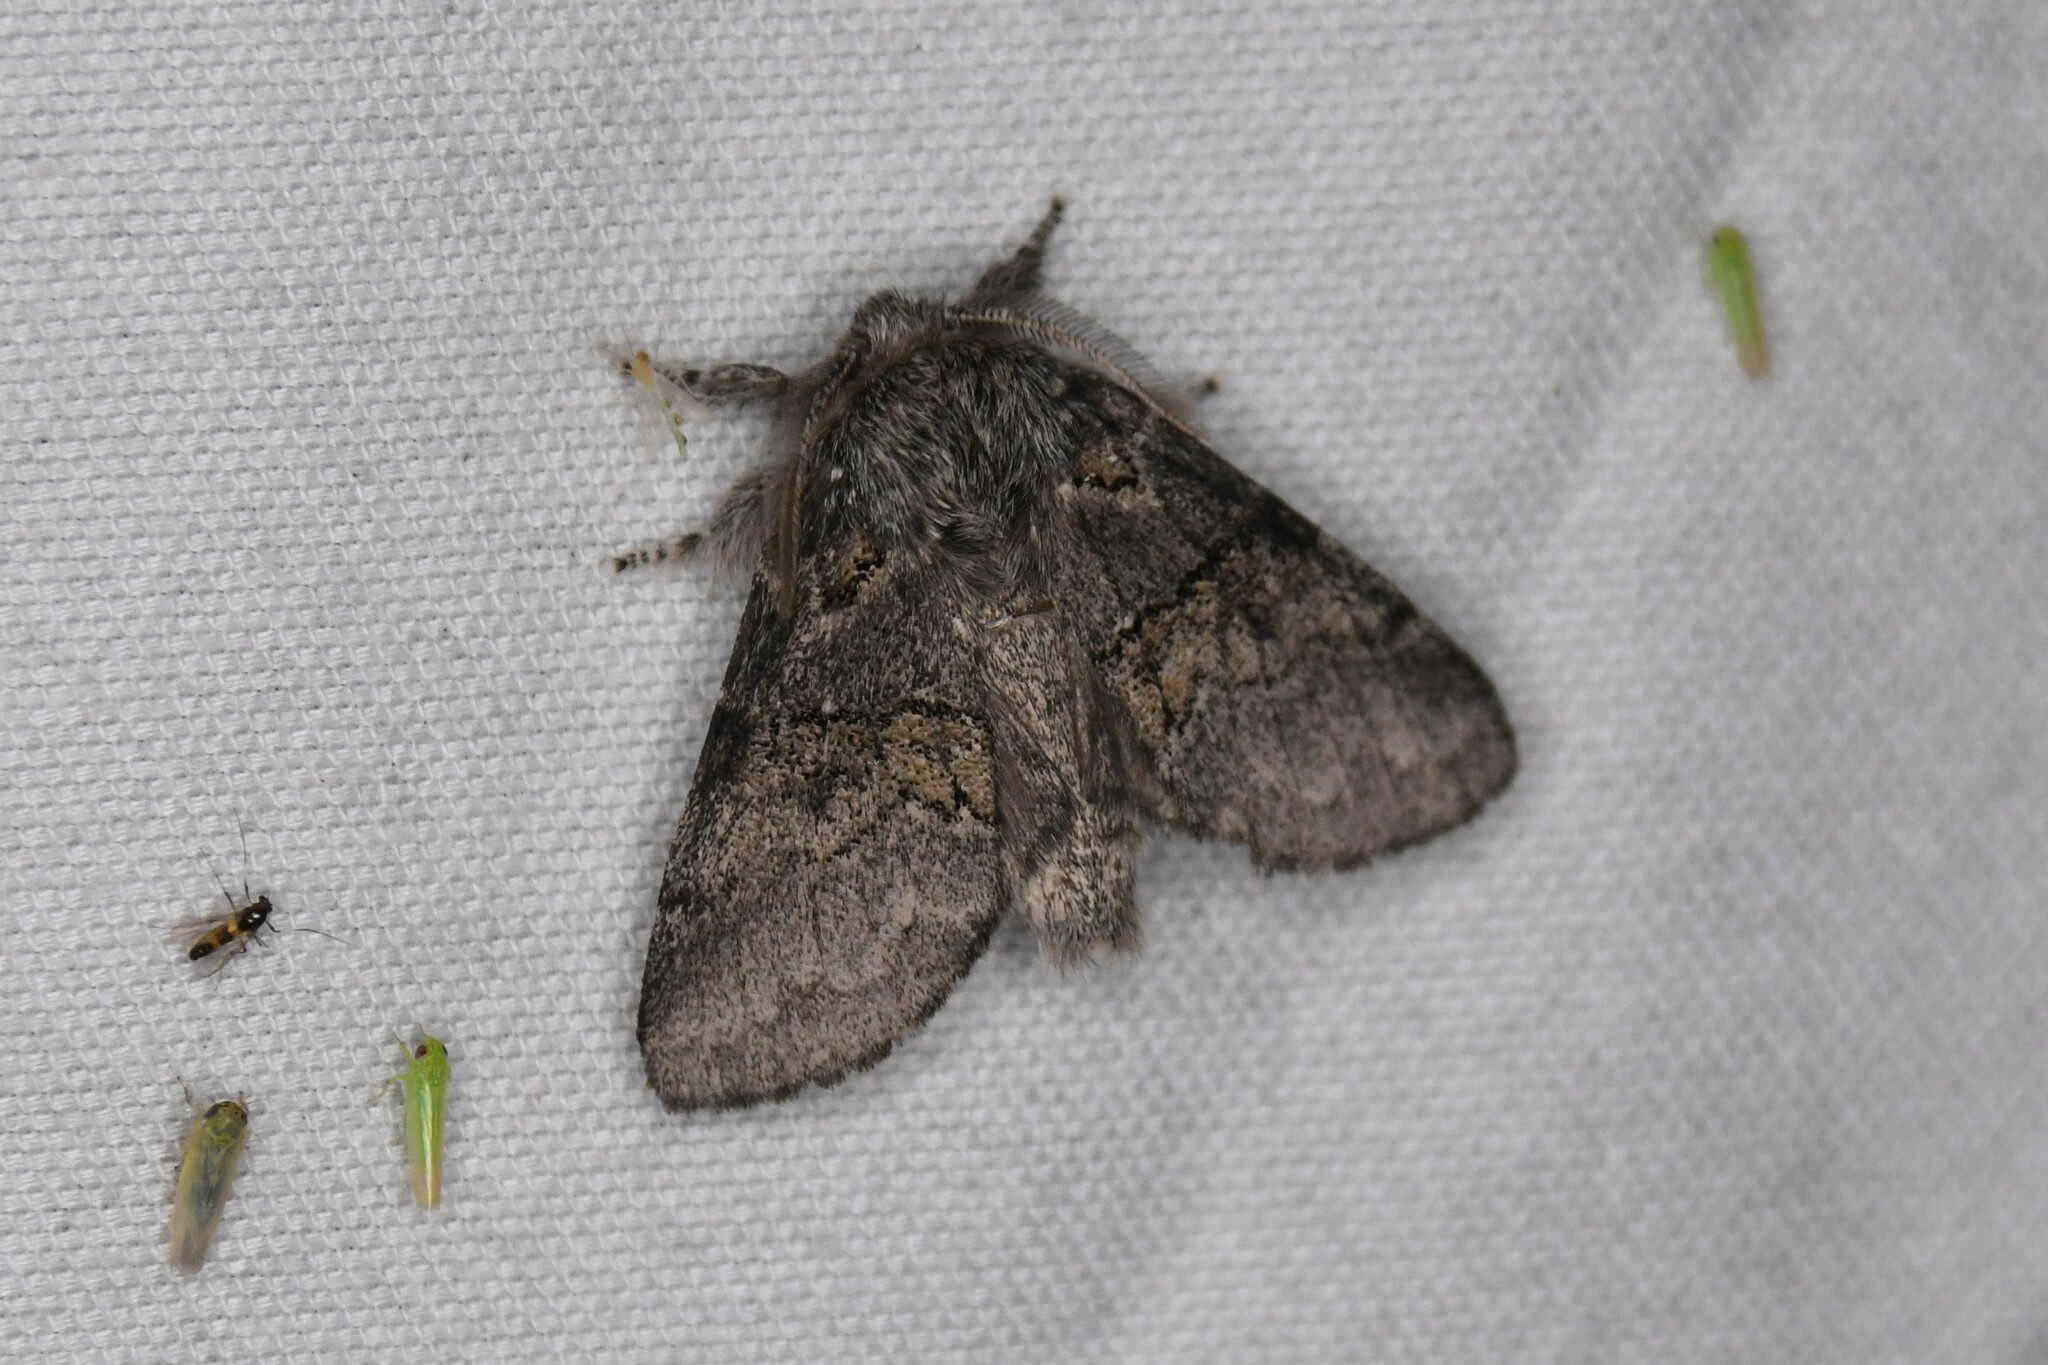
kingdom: Animalia
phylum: Arthropoda
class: Insecta
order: Lepidoptera
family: Notodontidae
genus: Gluphisia
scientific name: Gluphisia septentrionis
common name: Common gluphisia
